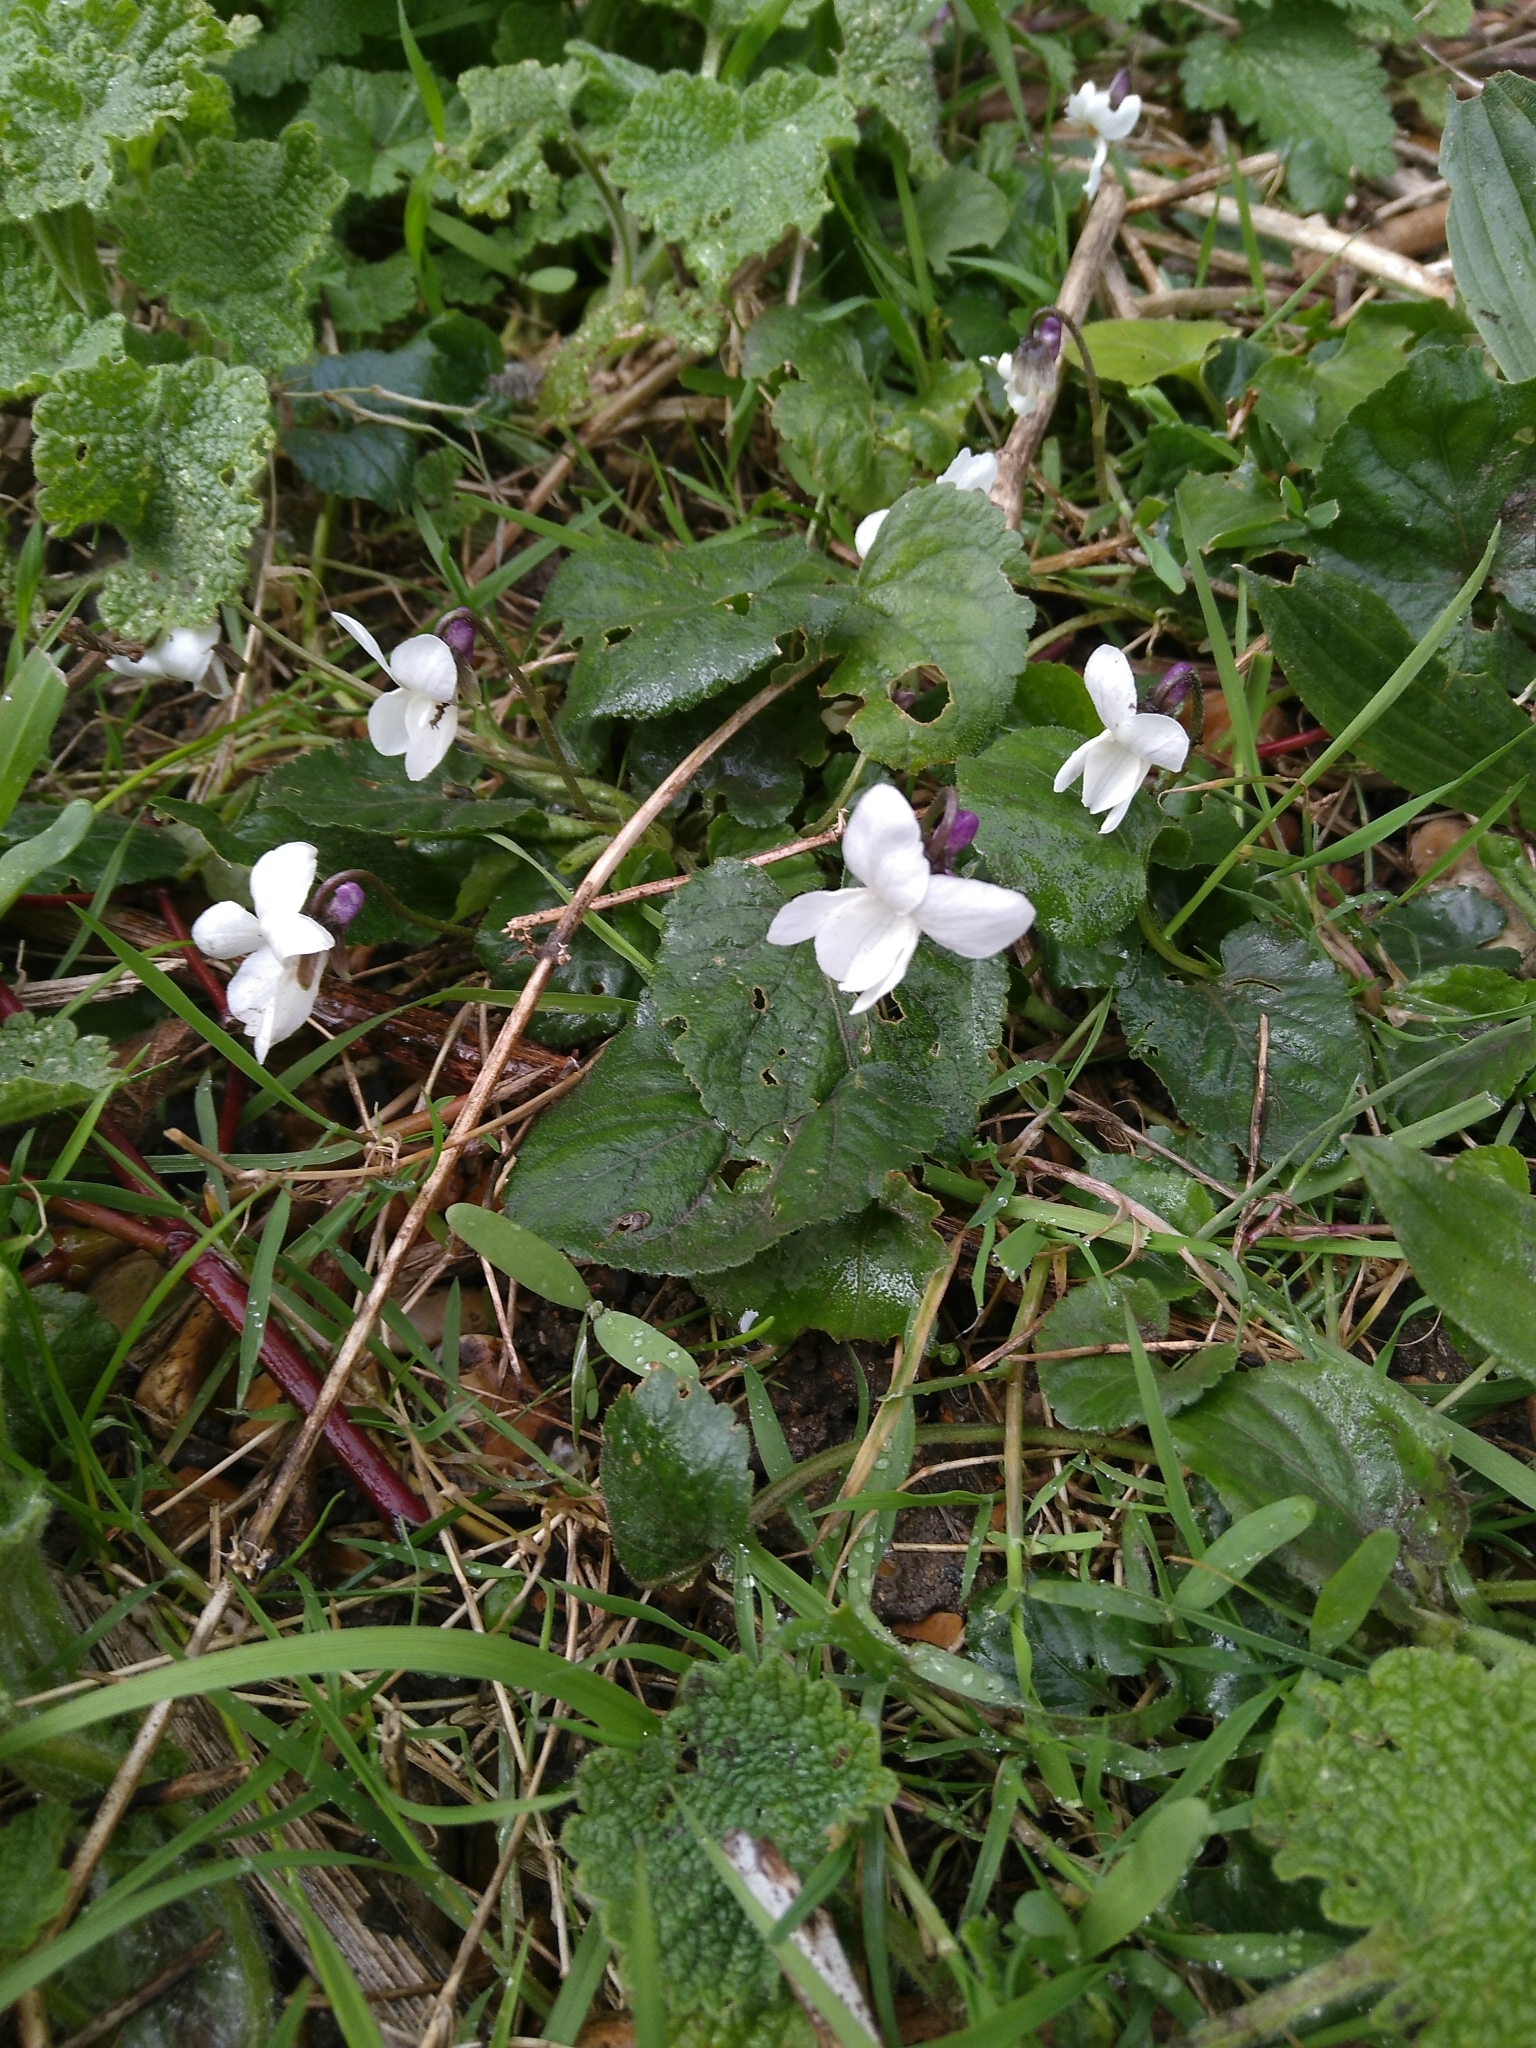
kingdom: Plantae
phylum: Tracheophyta
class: Magnoliopsida
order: Malpighiales
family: Violaceae
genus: Viola
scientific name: Viola odorata
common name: Sweet violet
